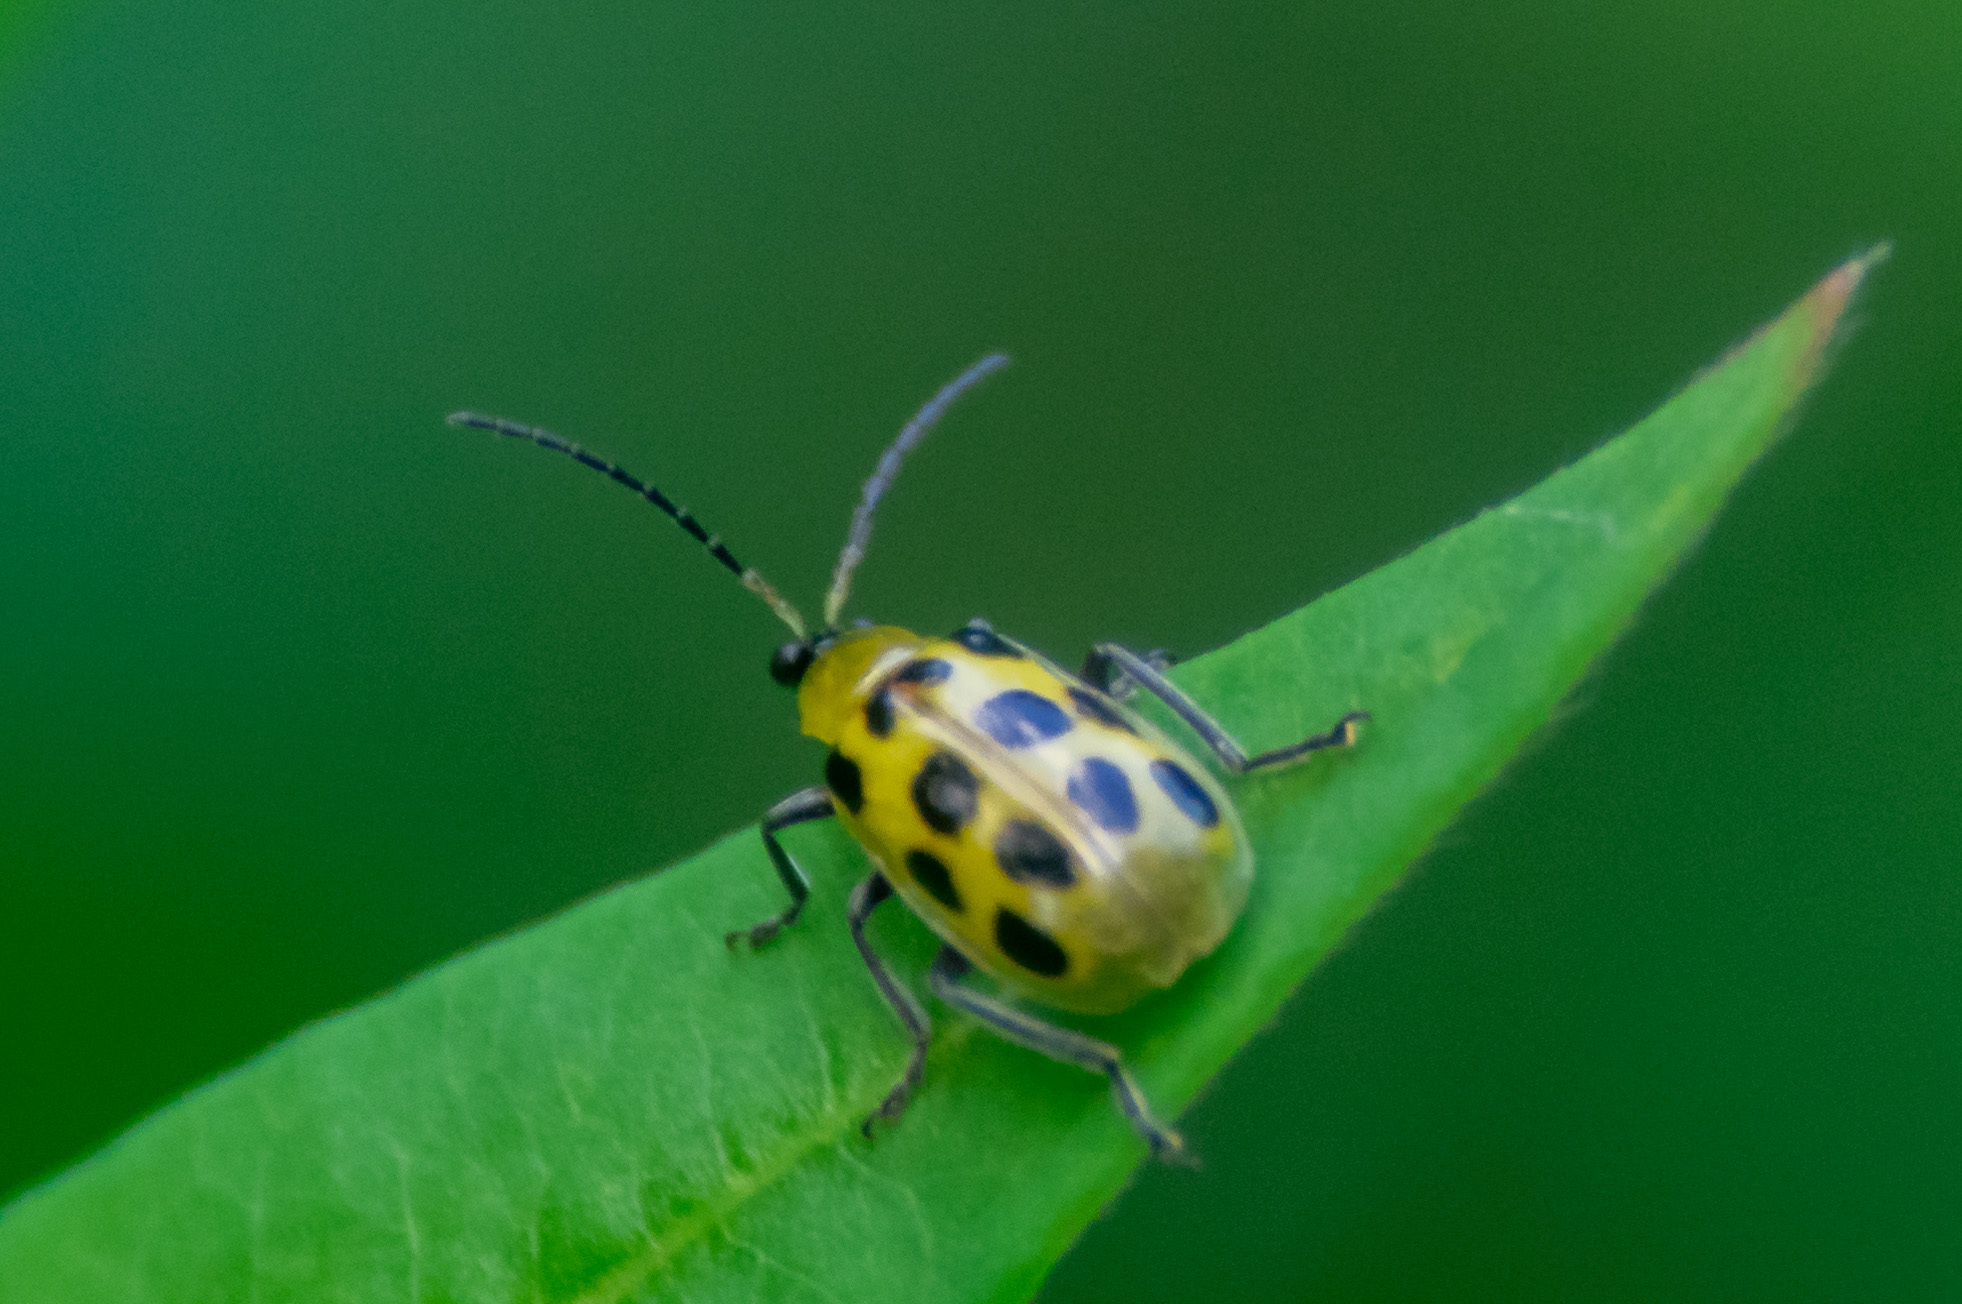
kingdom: Animalia
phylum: Arthropoda
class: Insecta
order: Coleoptera
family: Chrysomelidae
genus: Diabrotica
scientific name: Diabrotica undecimpunctata
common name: Spotted cucumber beetle
